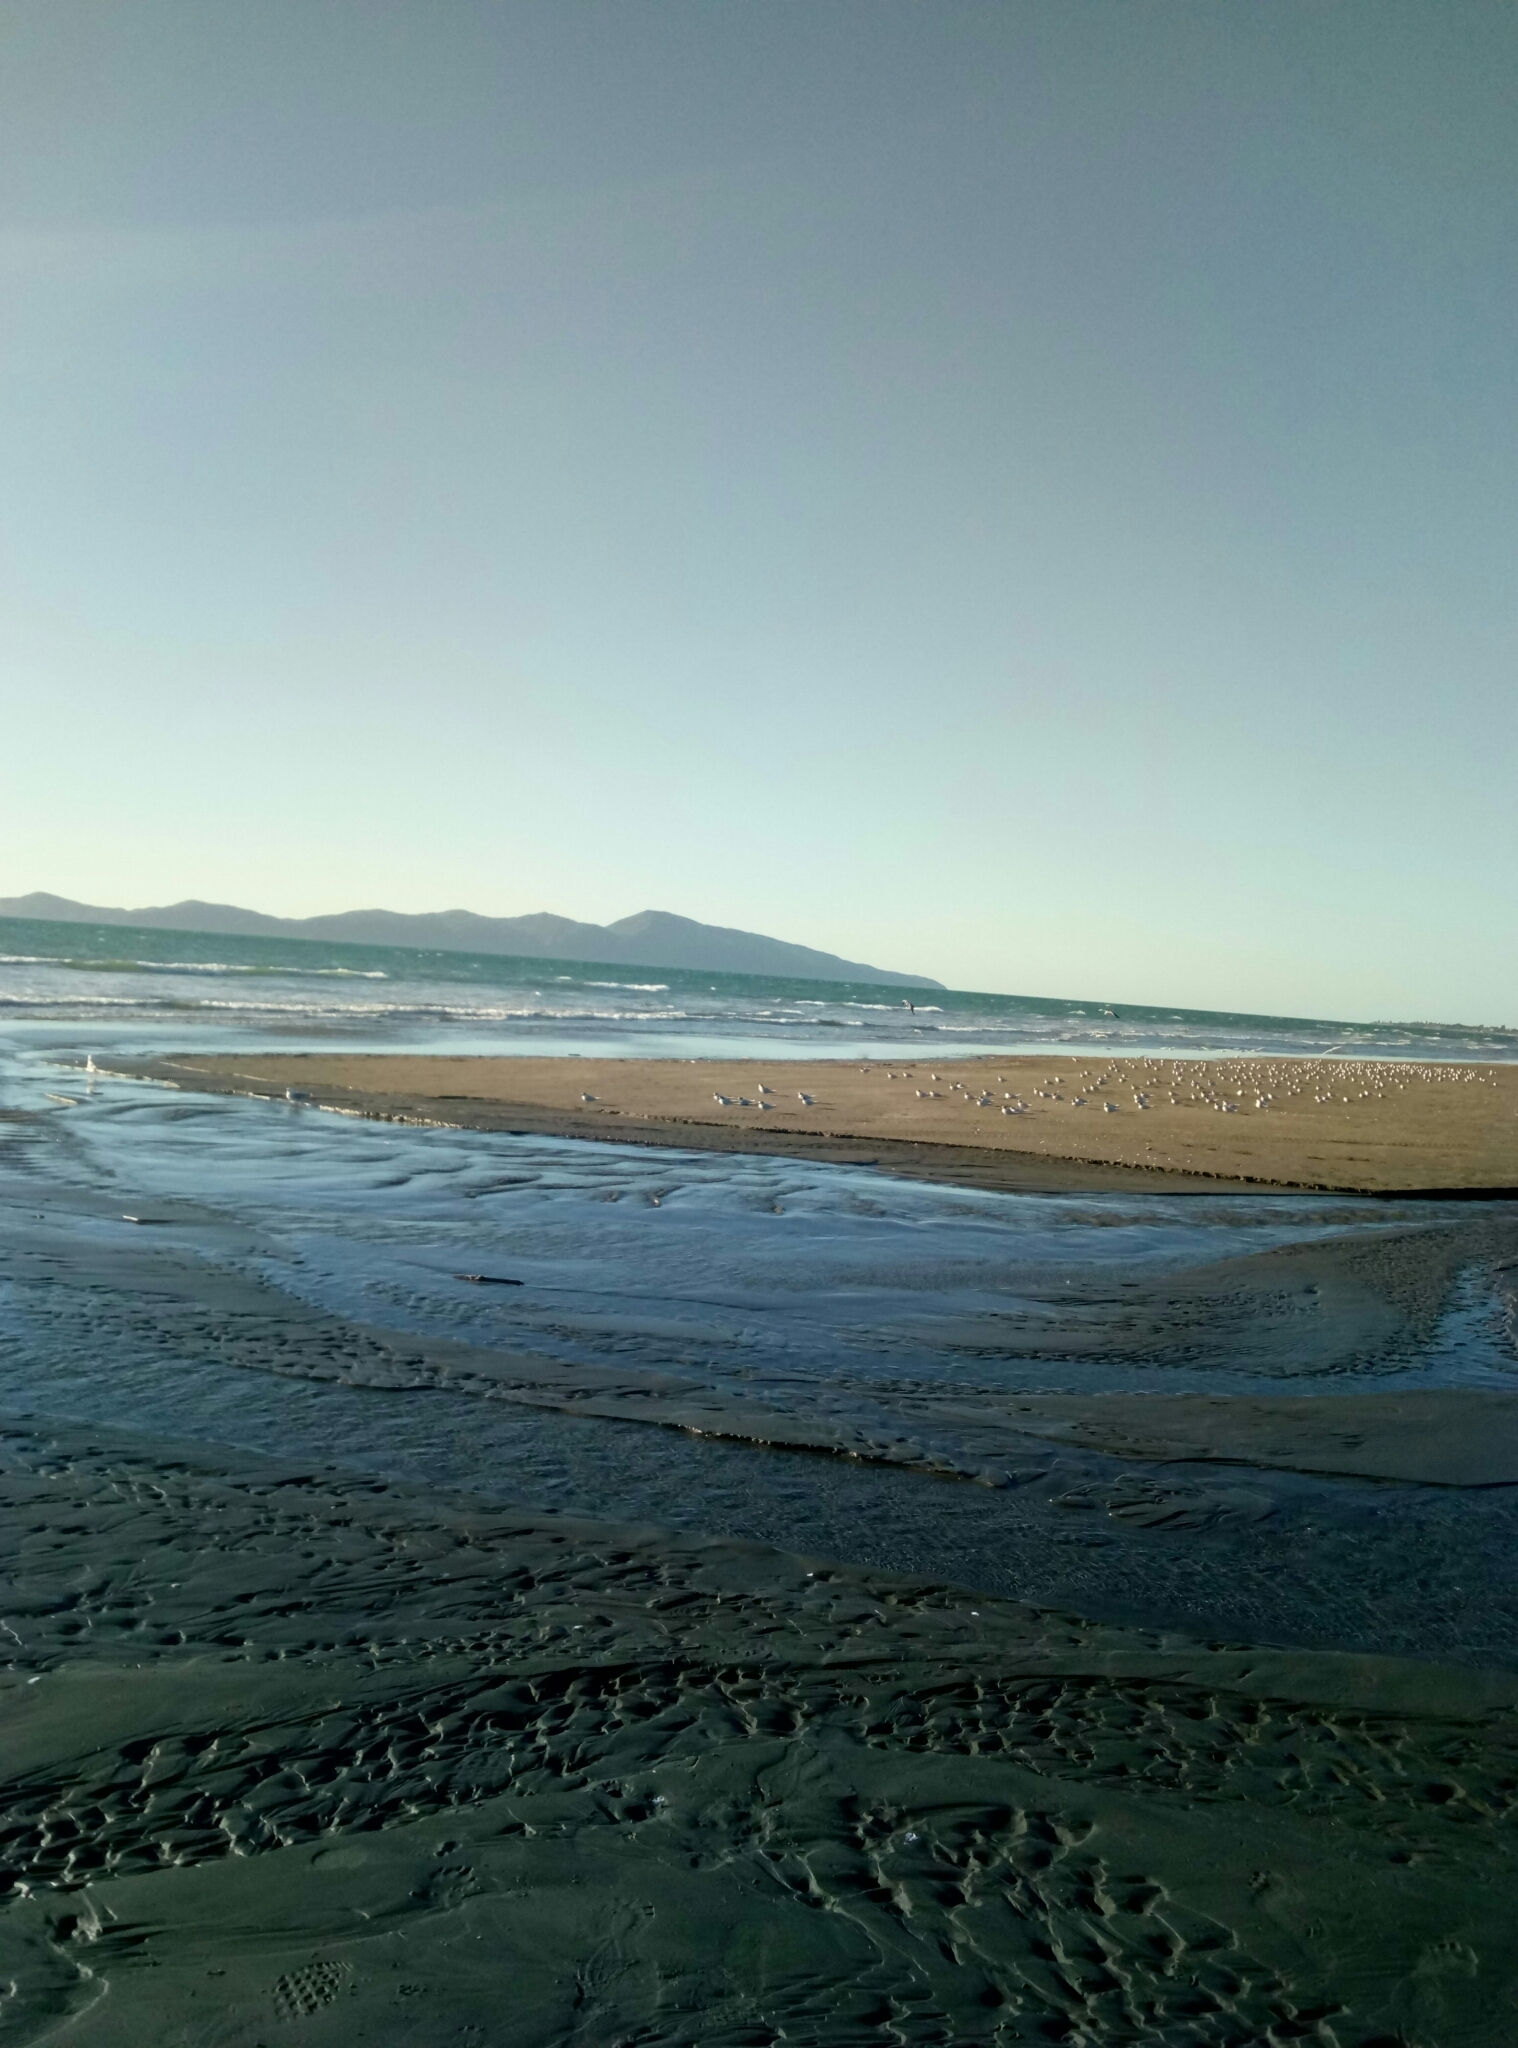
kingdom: Animalia
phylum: Chordata
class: Aves
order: Charadriiformes
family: Laridae
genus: Sterna
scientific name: Sterna striata
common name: White-fronted tern
